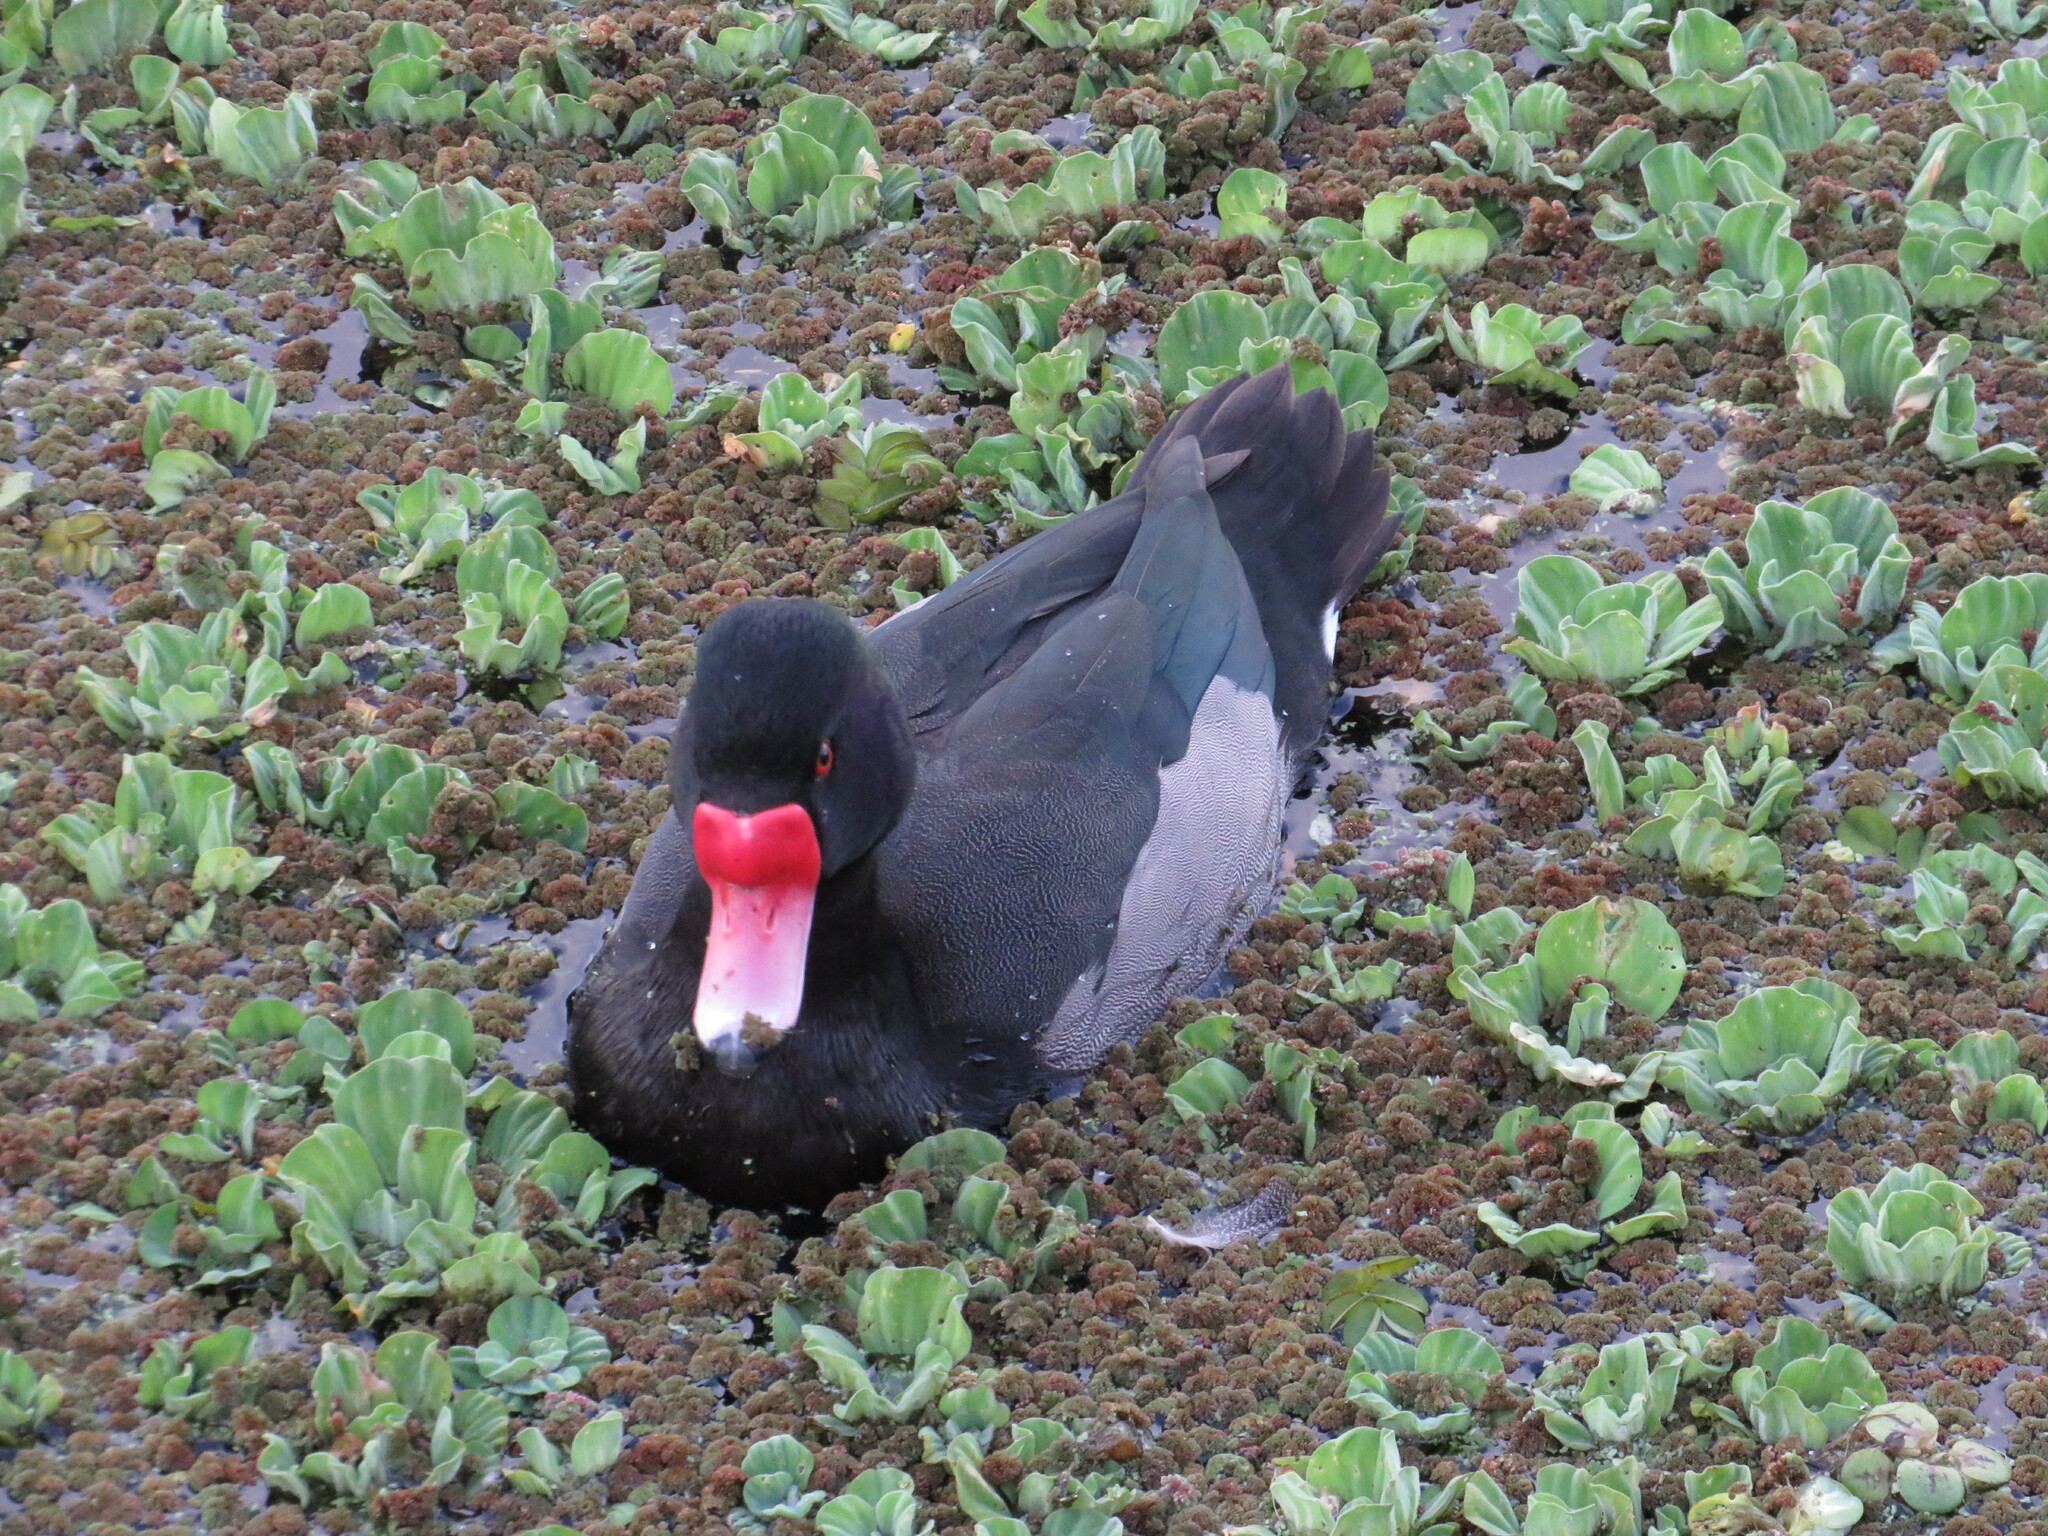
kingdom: Animalia
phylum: Chordata
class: Aves
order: Anseriformes
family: Anatidae
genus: Netta
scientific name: Netta peposaca
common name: Rosy-billed pochard
